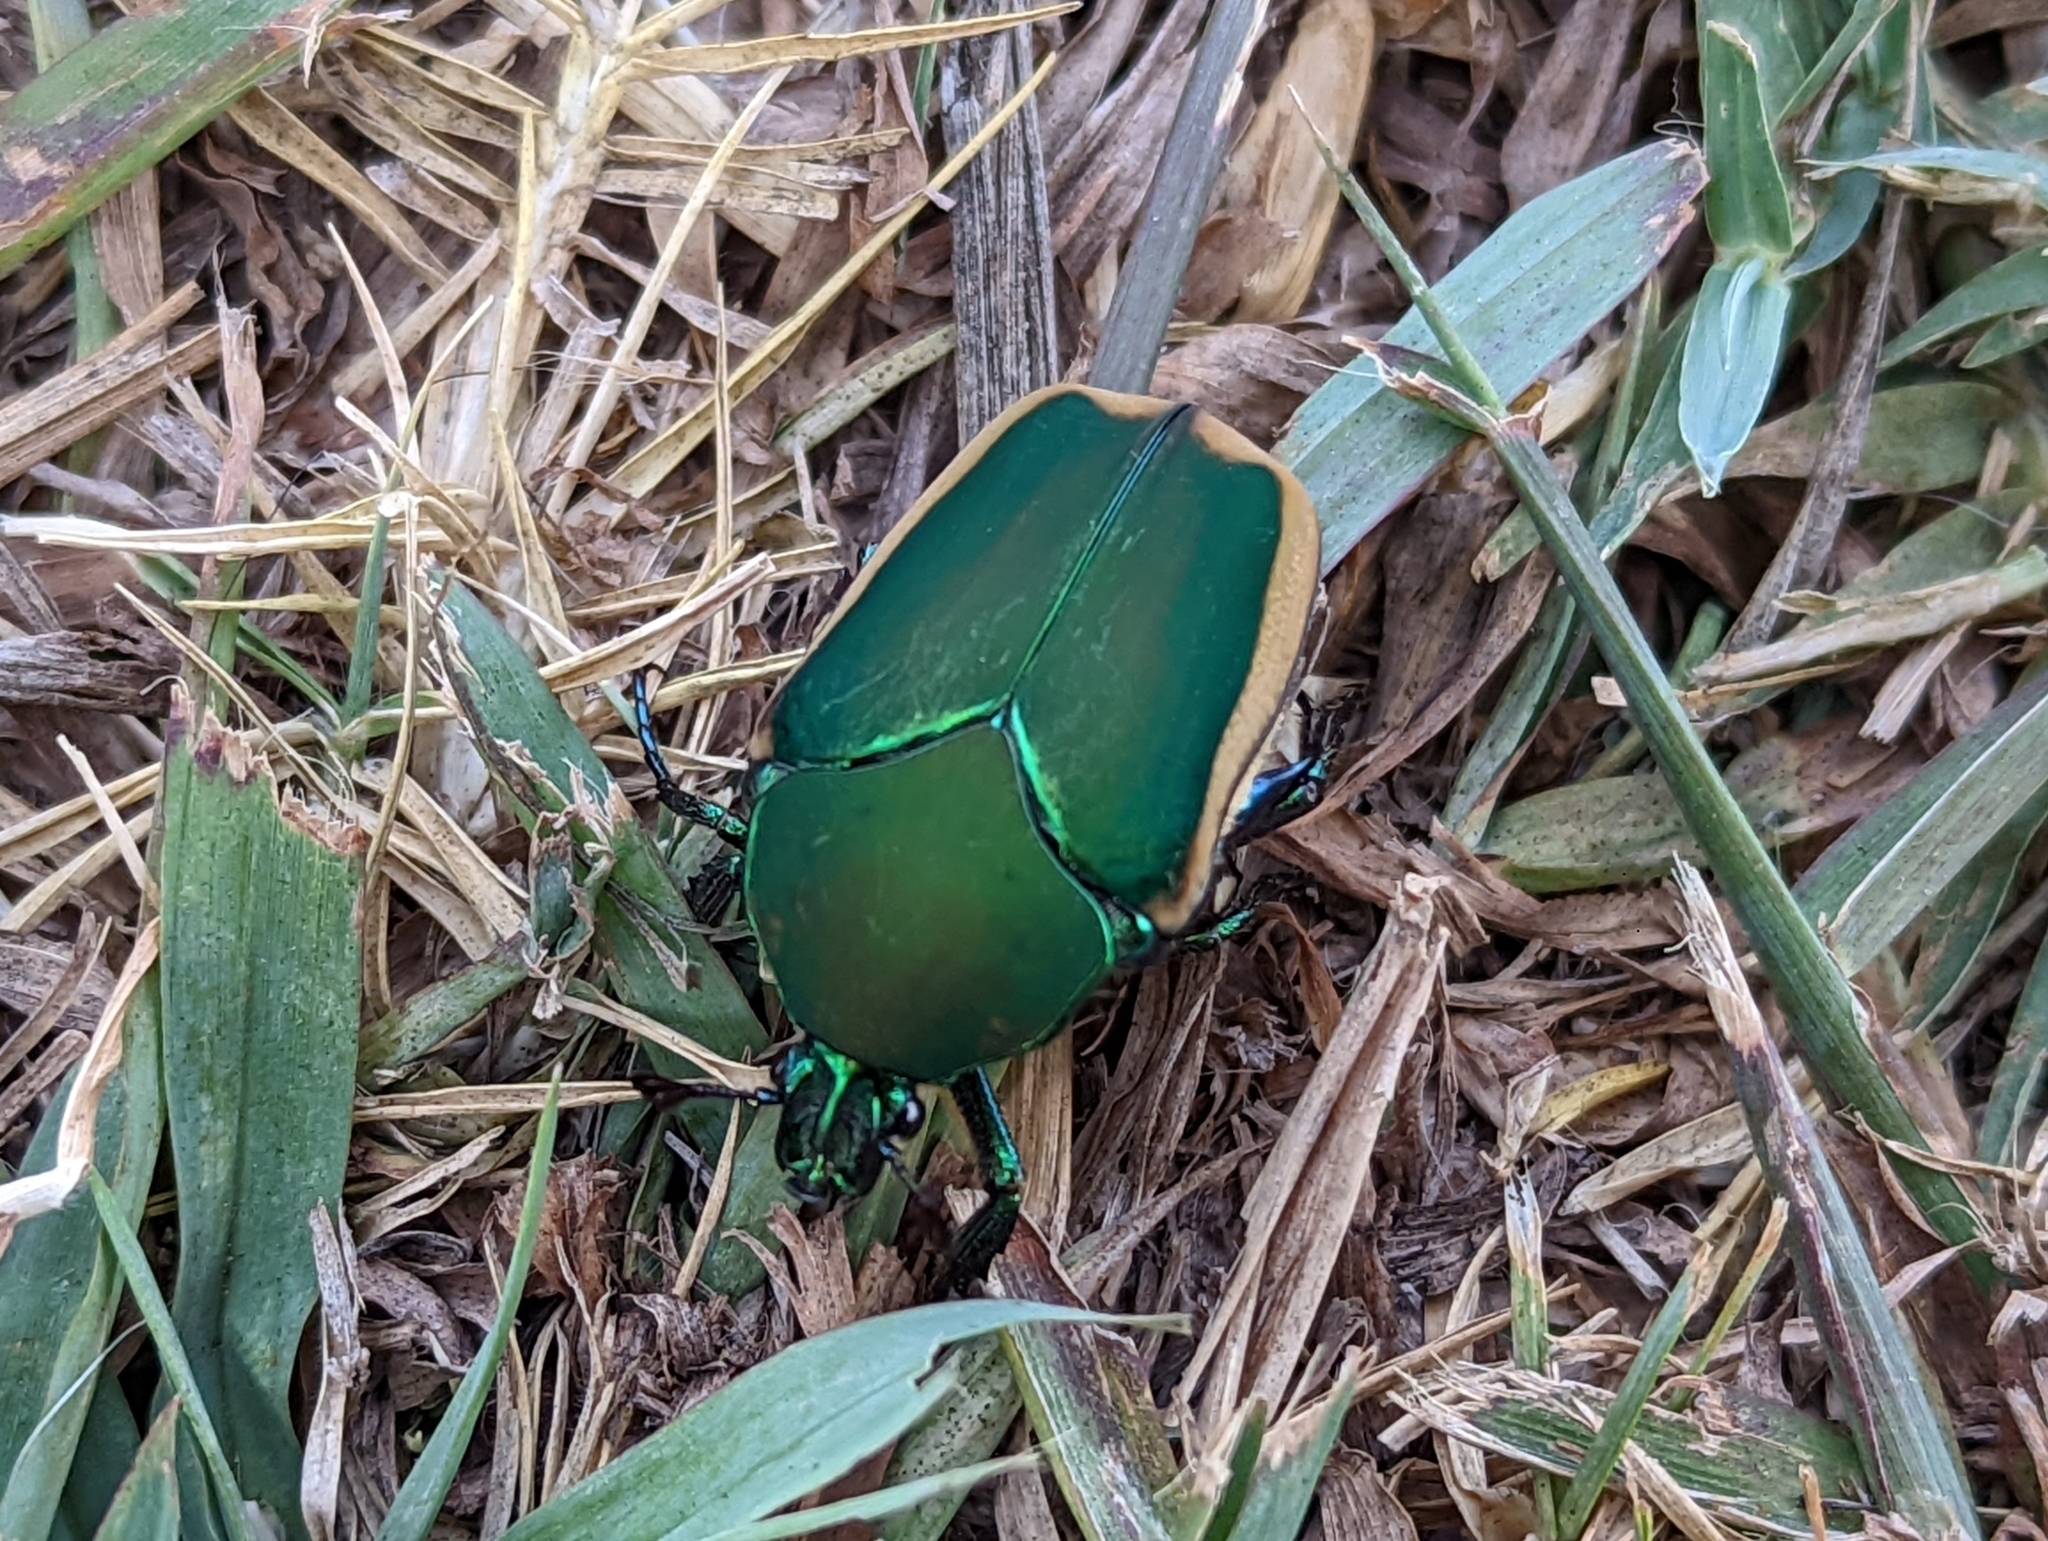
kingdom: Animalia
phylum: Arthropoda
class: Insecta
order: Coleoptera
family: Scarabaeidae
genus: Cotinis
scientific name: Cotinis mutabilis
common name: Figeater beetle
